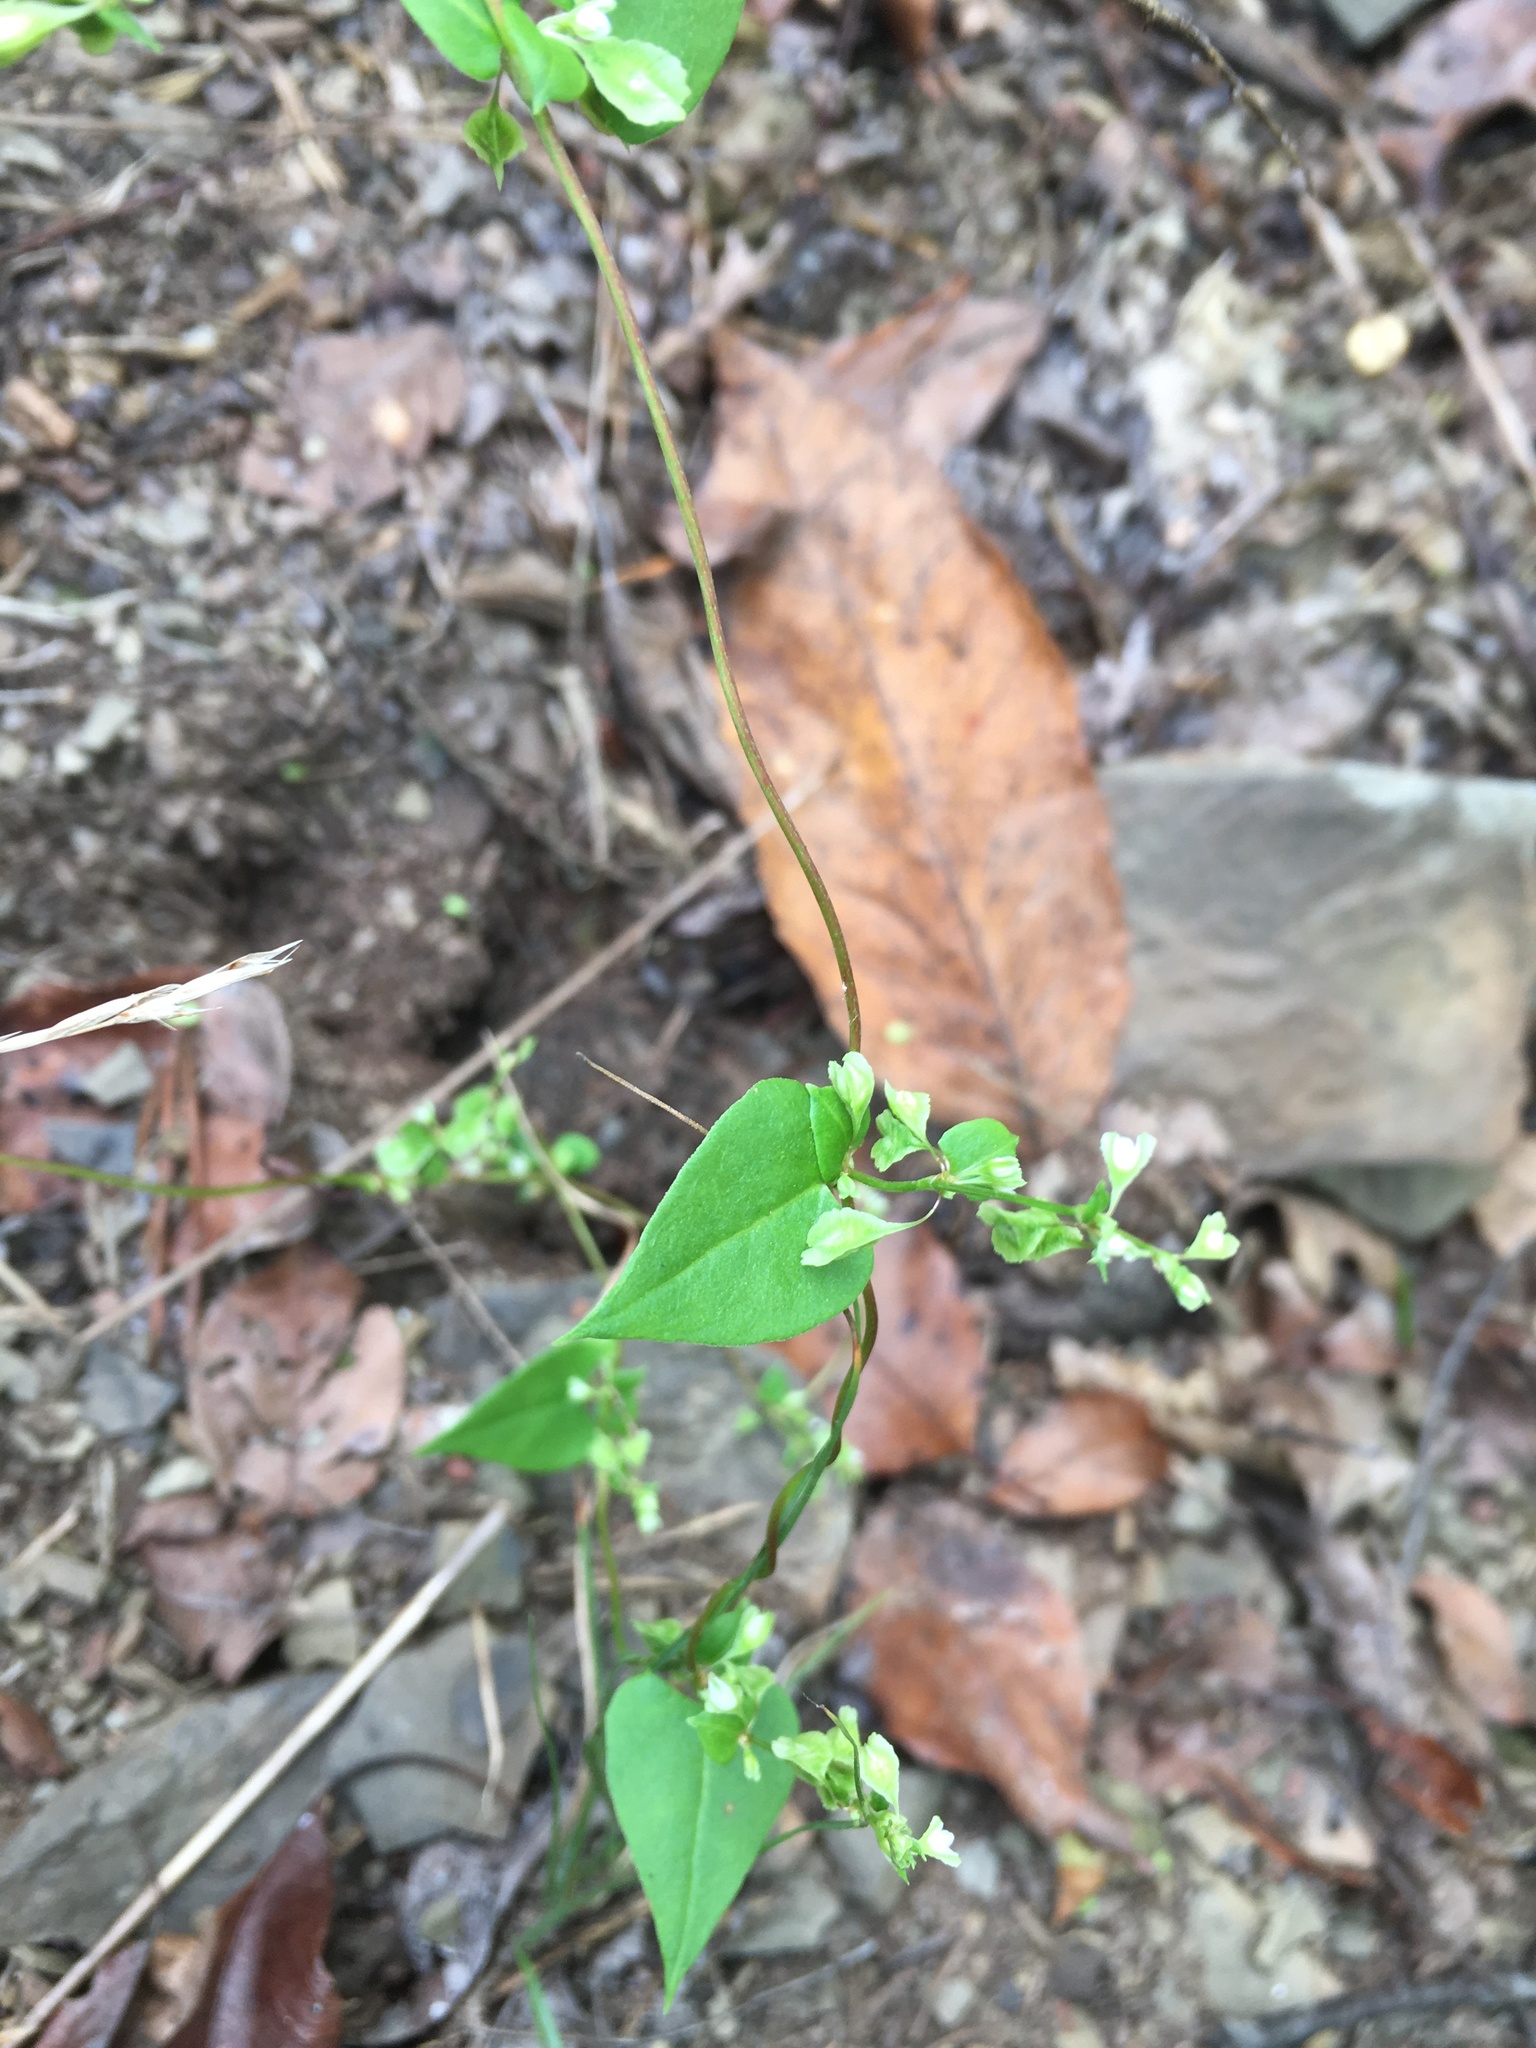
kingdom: Plantae
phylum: Tracheophyta
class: Magnoliopsida
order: Caryophyllales
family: Polygonaceae
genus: Fallopia
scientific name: Fallopia scandens
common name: Climbing false buckwheat
